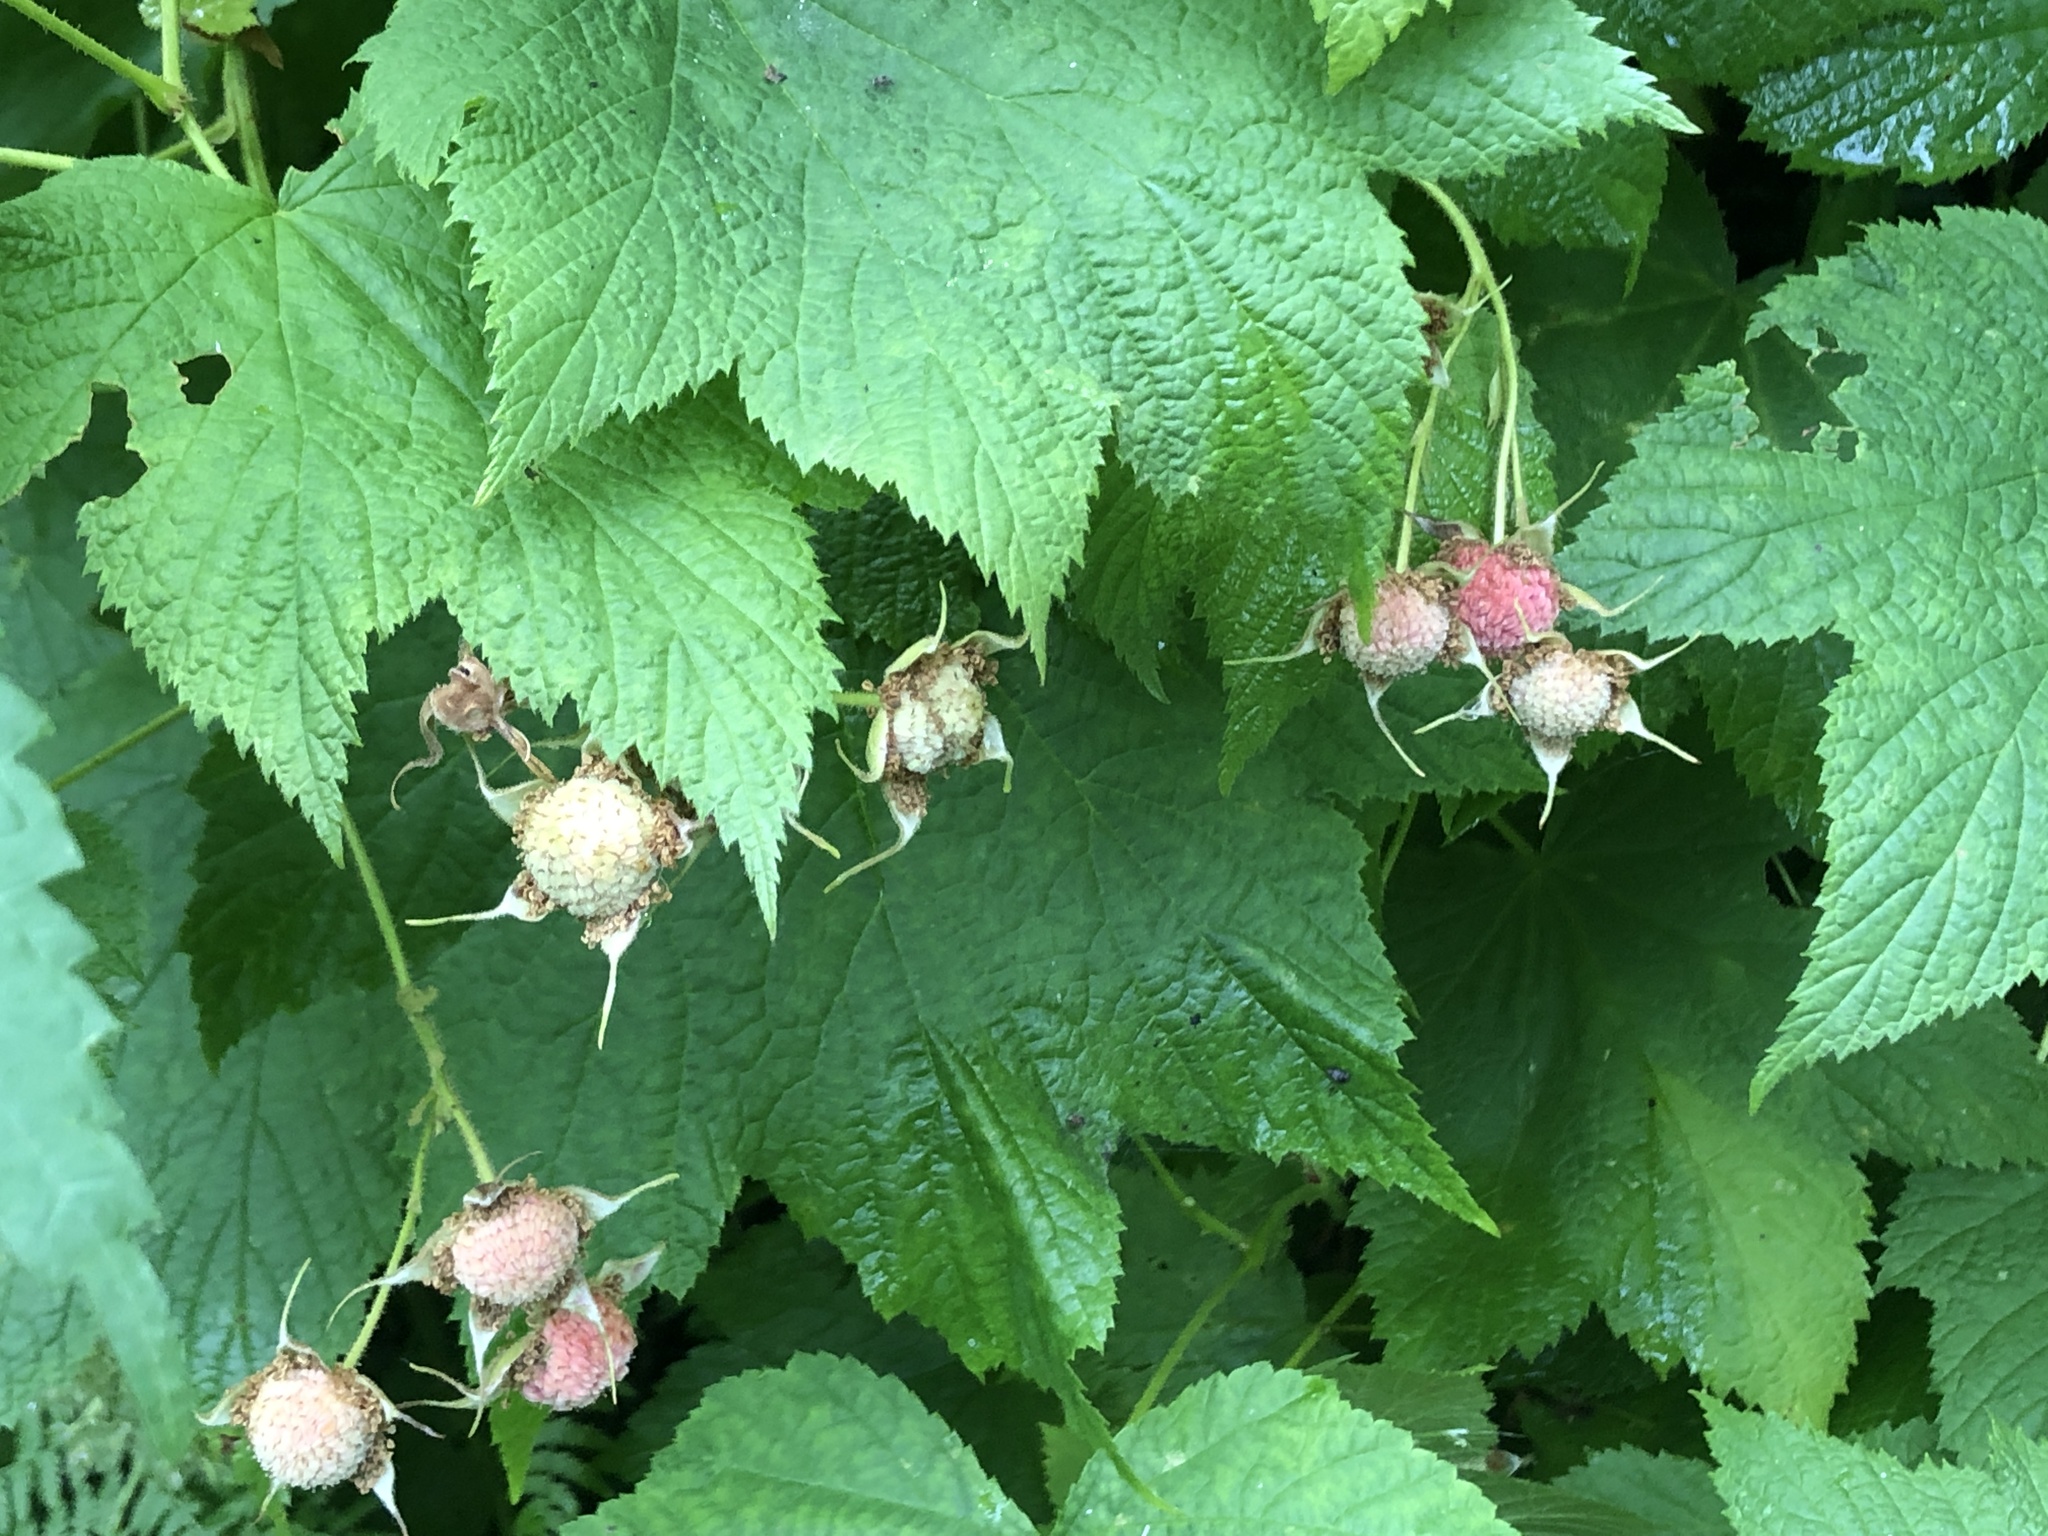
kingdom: Plantae
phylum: Tracheophyta
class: Magnoliopsida
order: Rosales
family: Rosaceae
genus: Rubus
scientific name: Rubus parviflorus
